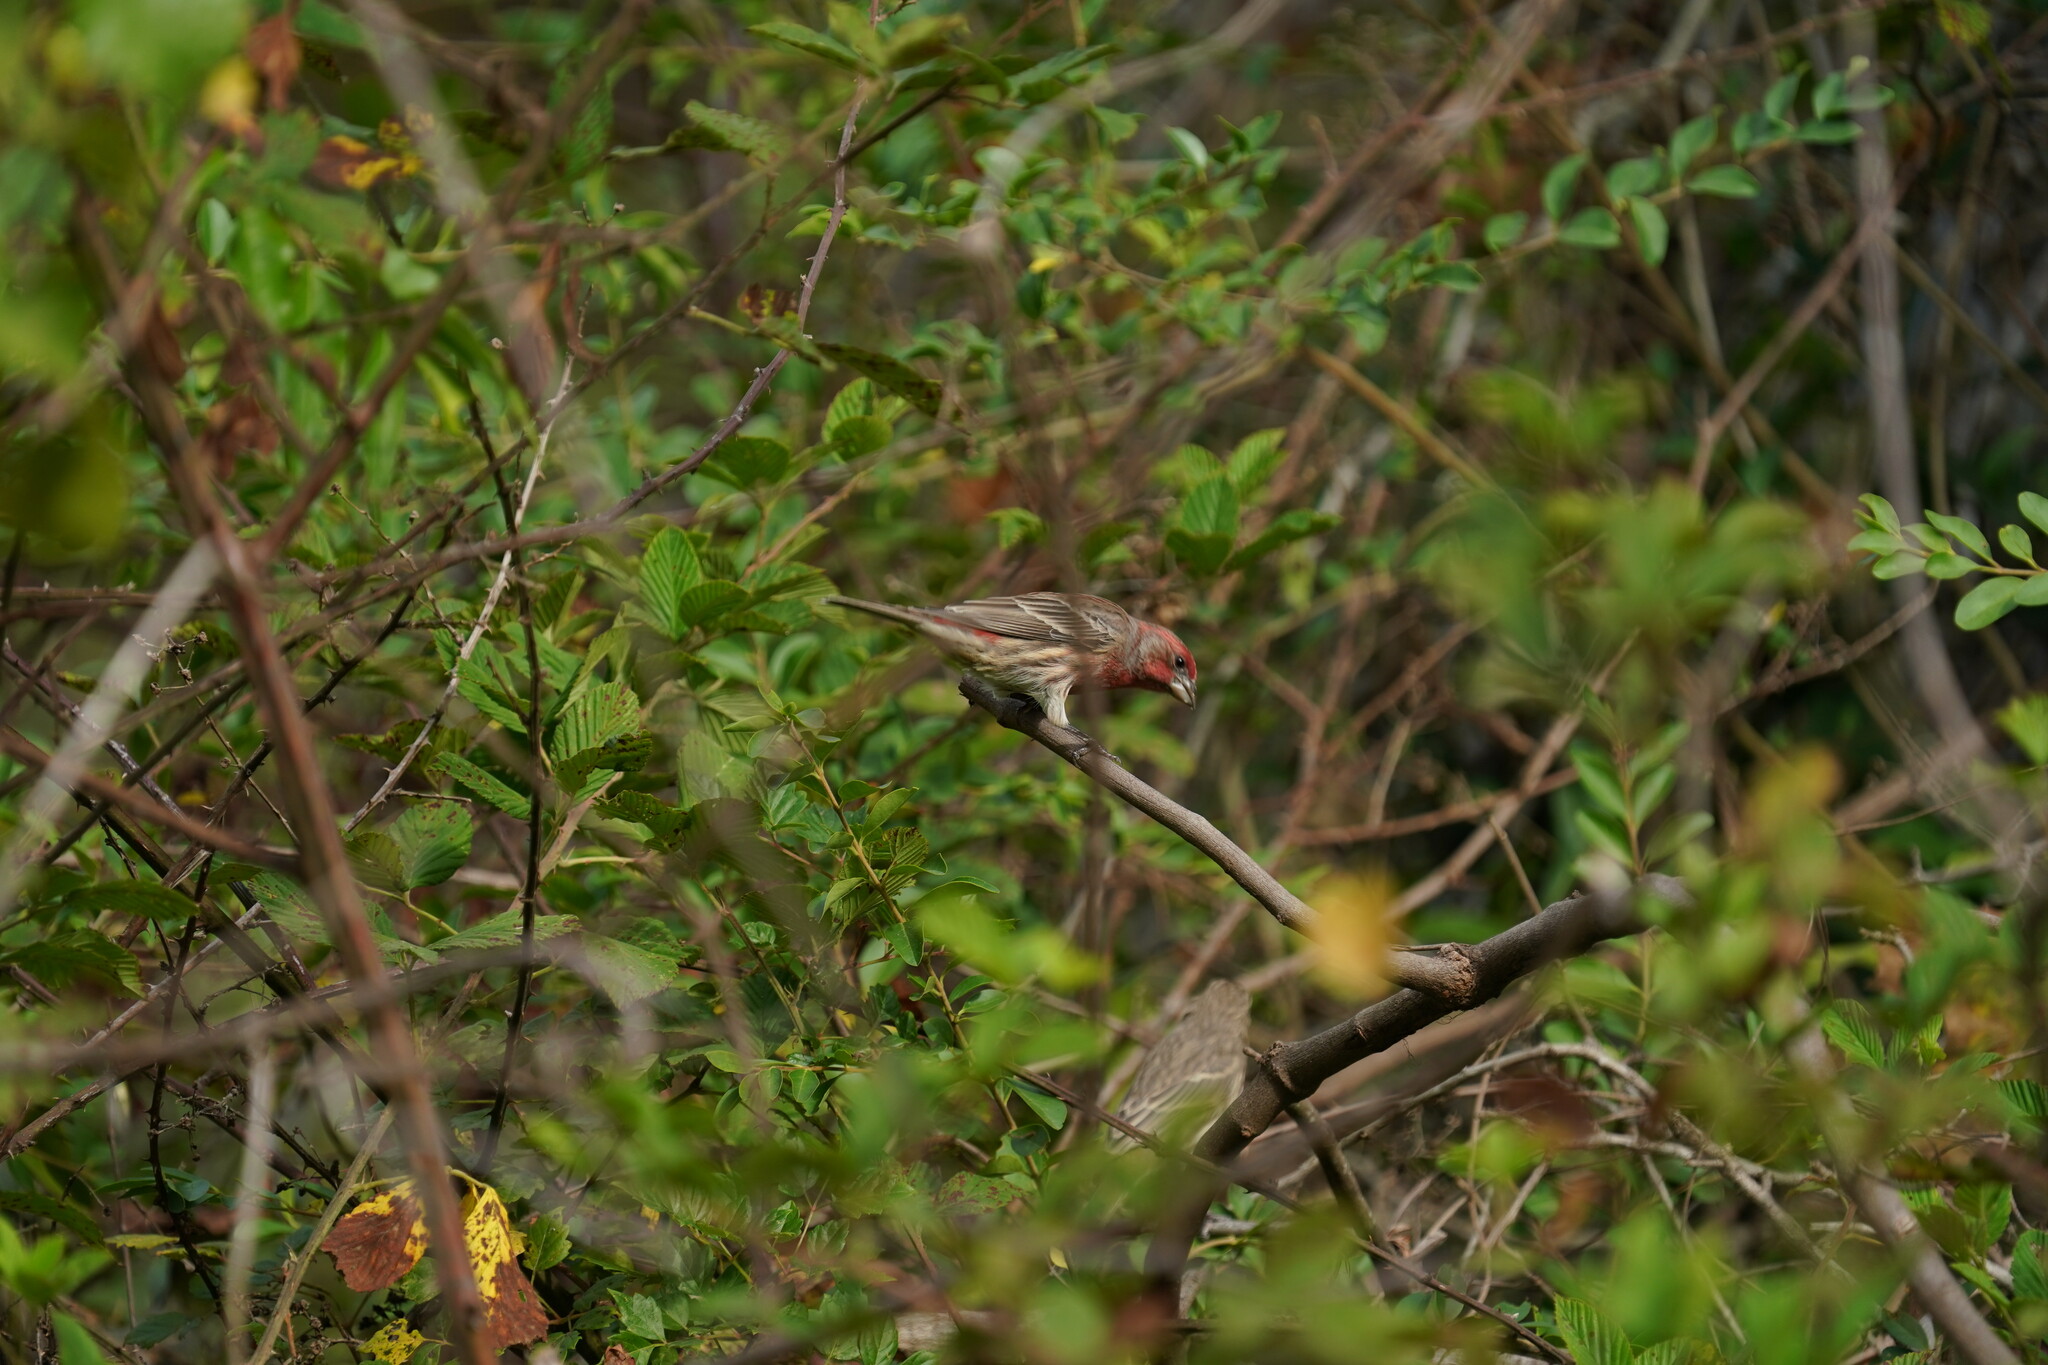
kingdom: Animalia
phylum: Chordata
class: Aves
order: Passeriformes
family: Fringillidae
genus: Haemorhous
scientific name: Haemorhous mexicanus
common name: House finch
